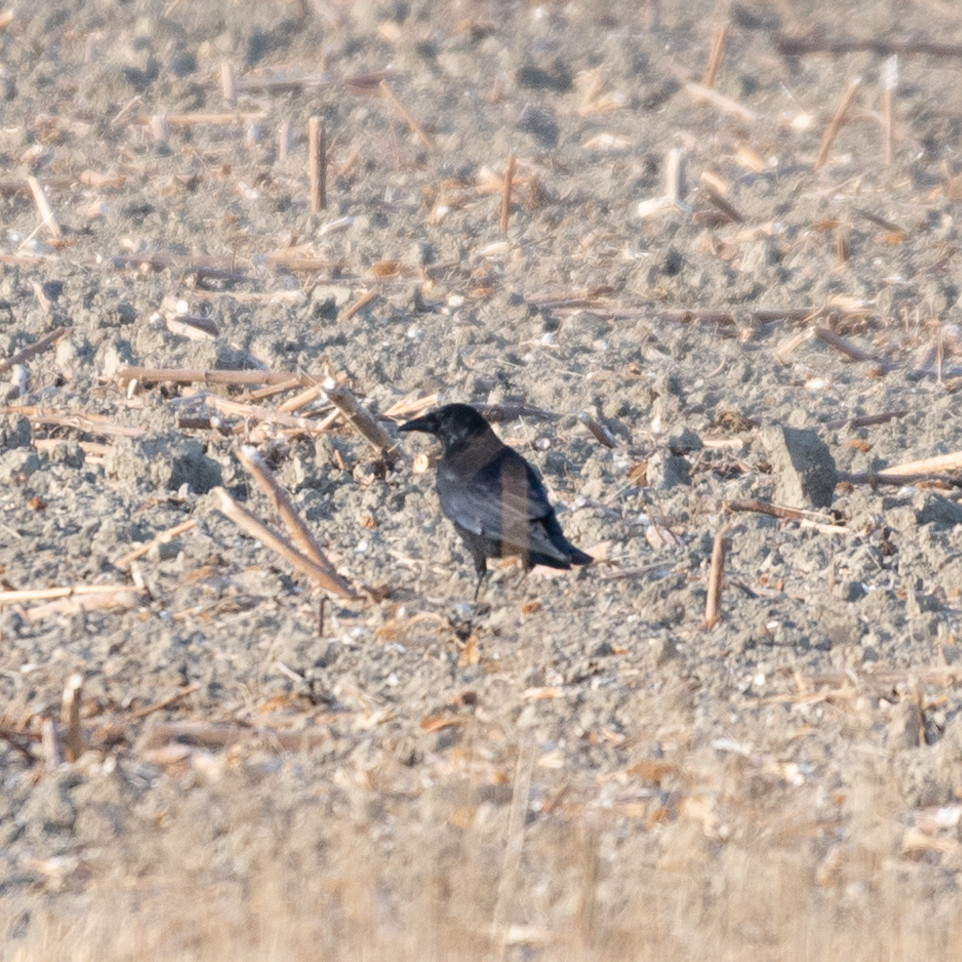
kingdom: Animalia
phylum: Chordata
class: Aves
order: Passeriformes
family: Corvidae
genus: Corvus
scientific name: Corvus corone
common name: Carrion crow
